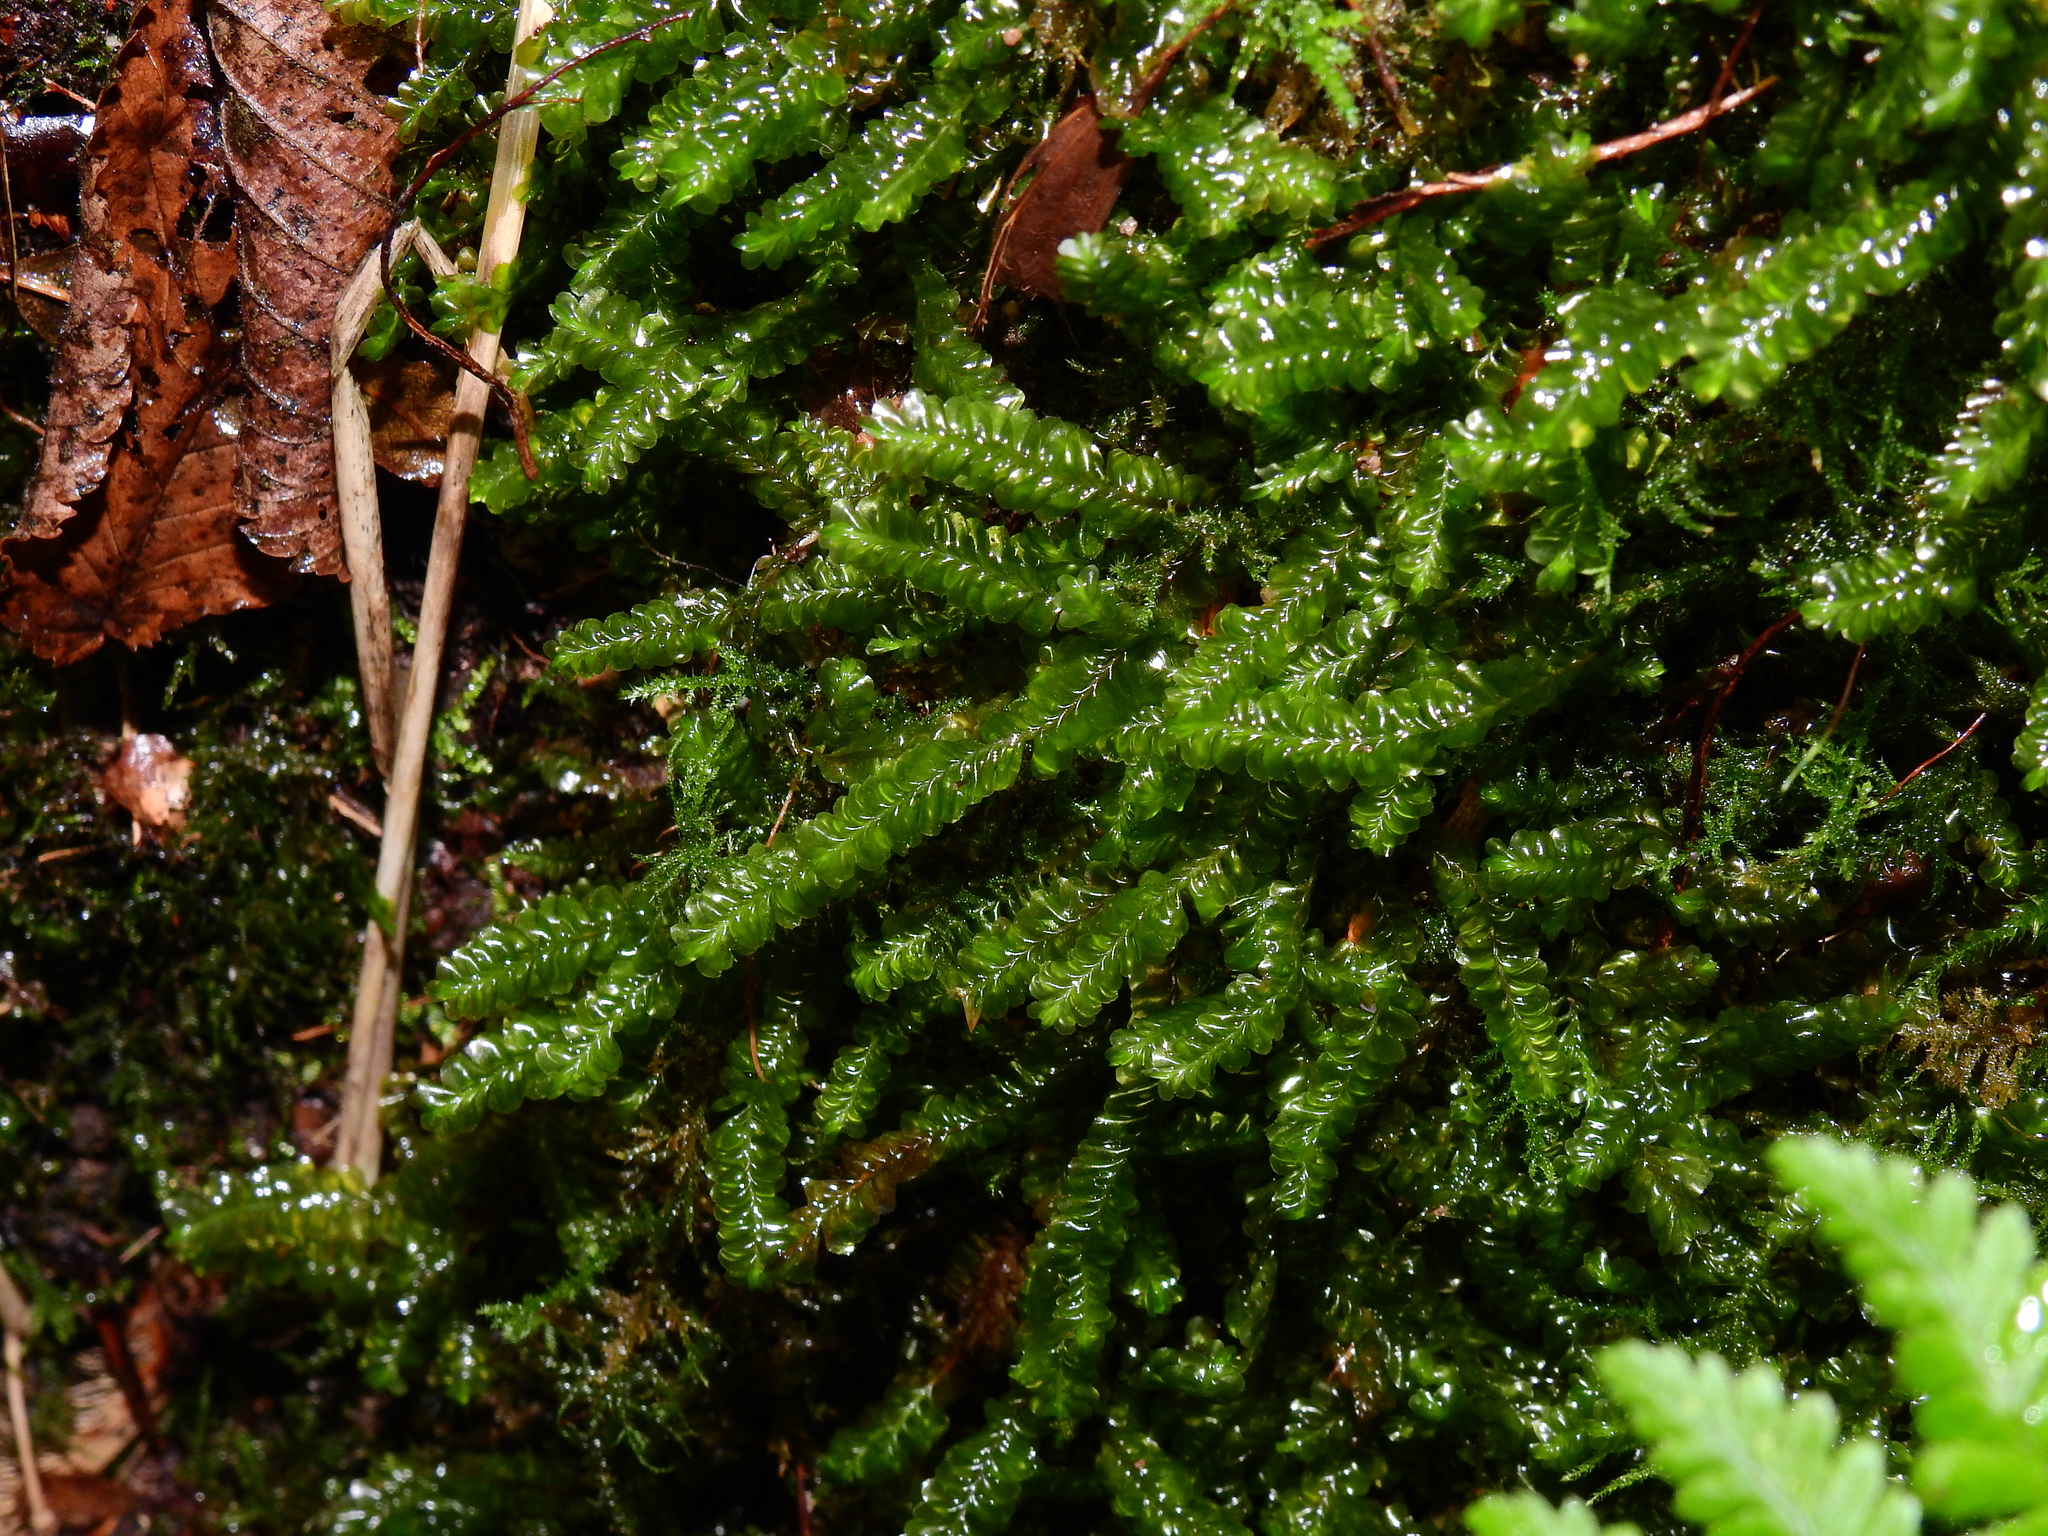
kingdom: Plantae
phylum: Marchantiophyta
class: Jungermanniopsida
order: Jungermanniales
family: Plagiochilaceae
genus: Plagiochila
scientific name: Plagiochila asplenioides
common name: Greater featherwort
